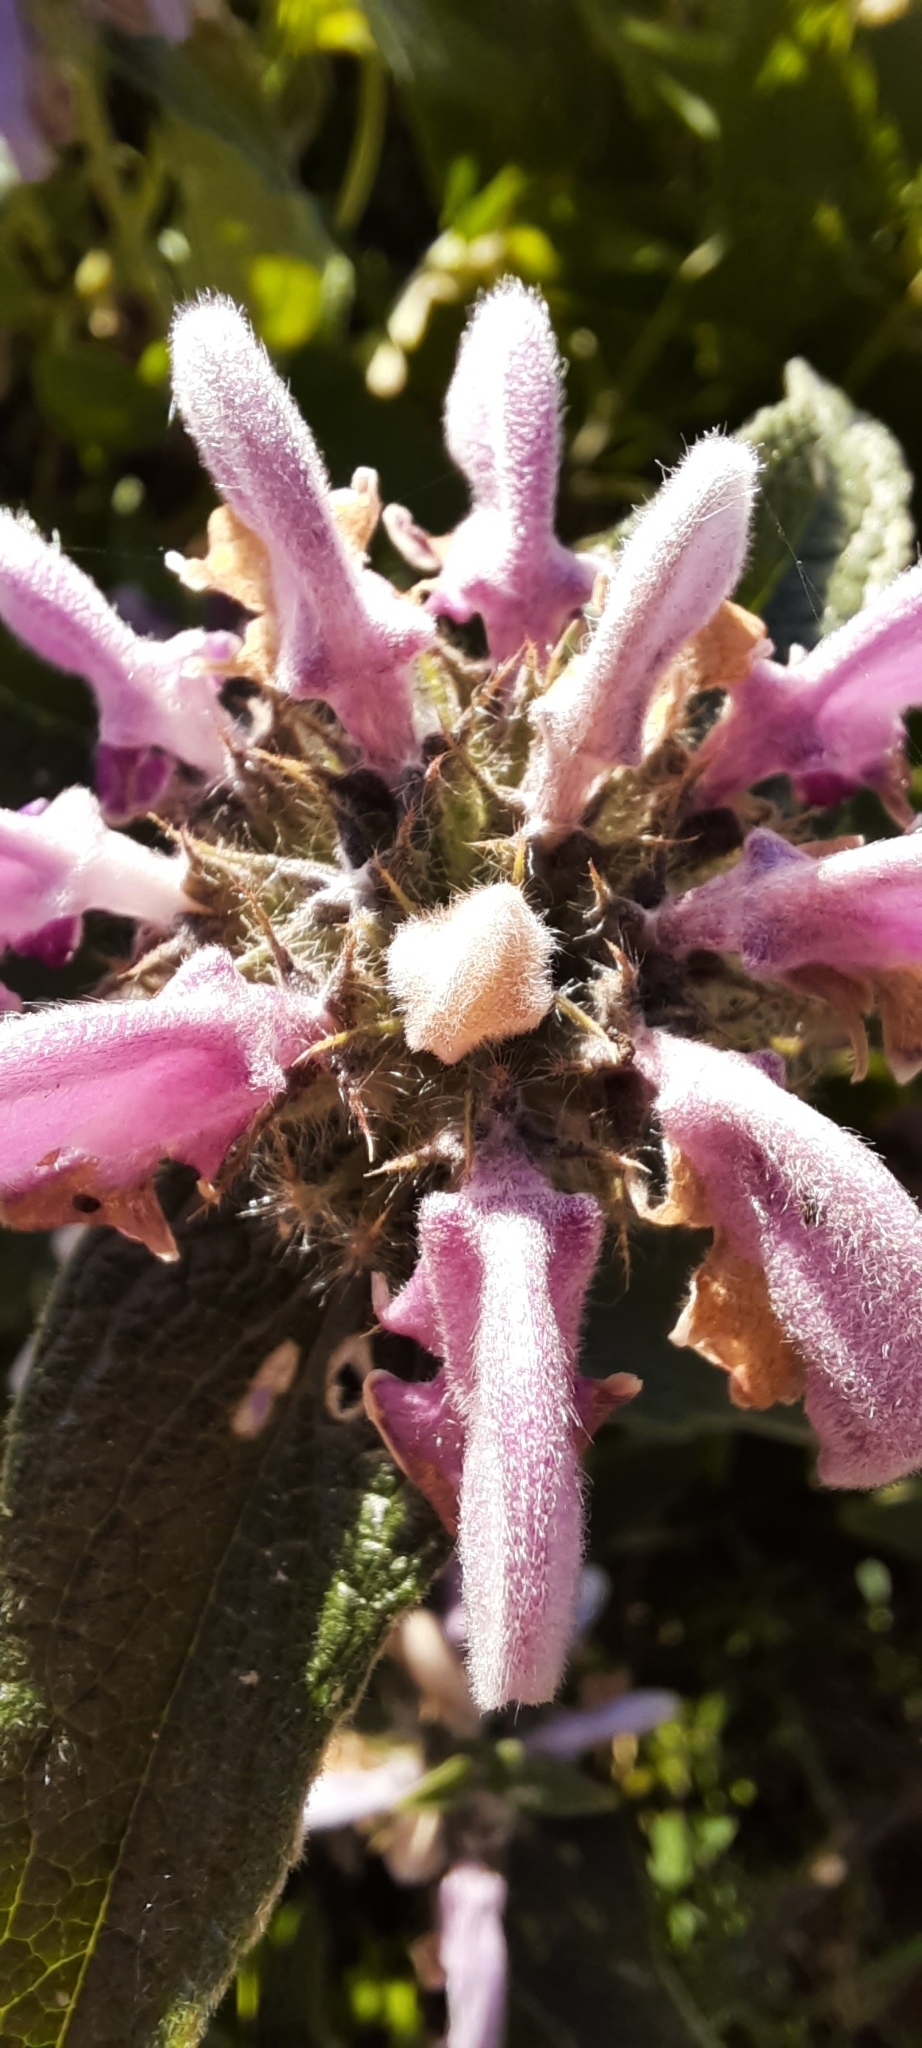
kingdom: Plantae
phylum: Tracheophyta
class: Magnoliopsida
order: Lamiales
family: Lamiaceae
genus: Phlomis
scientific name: Phlomis herba-venti
